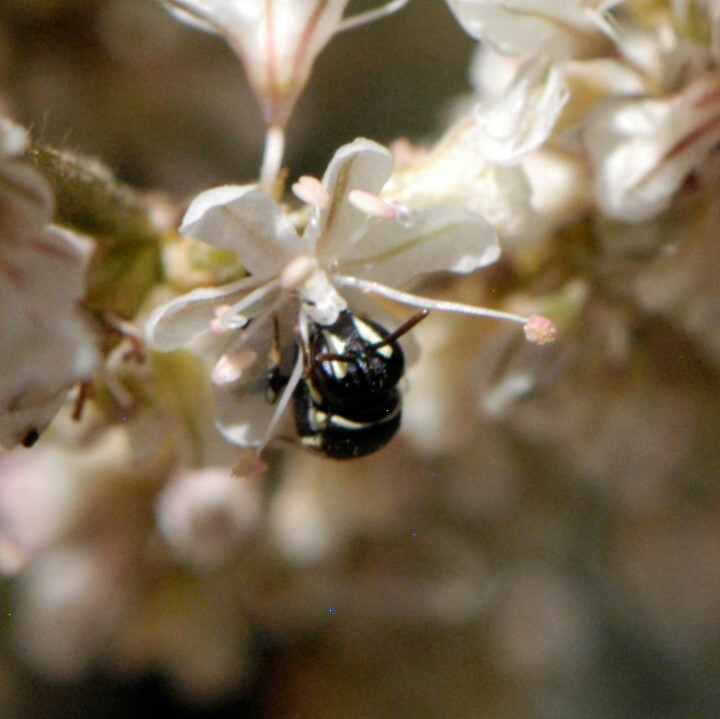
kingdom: Animalia
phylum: Arthropoda
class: Insecta
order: Hymenoptera
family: Colletidae
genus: Hylaeus
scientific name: Hylaeus
